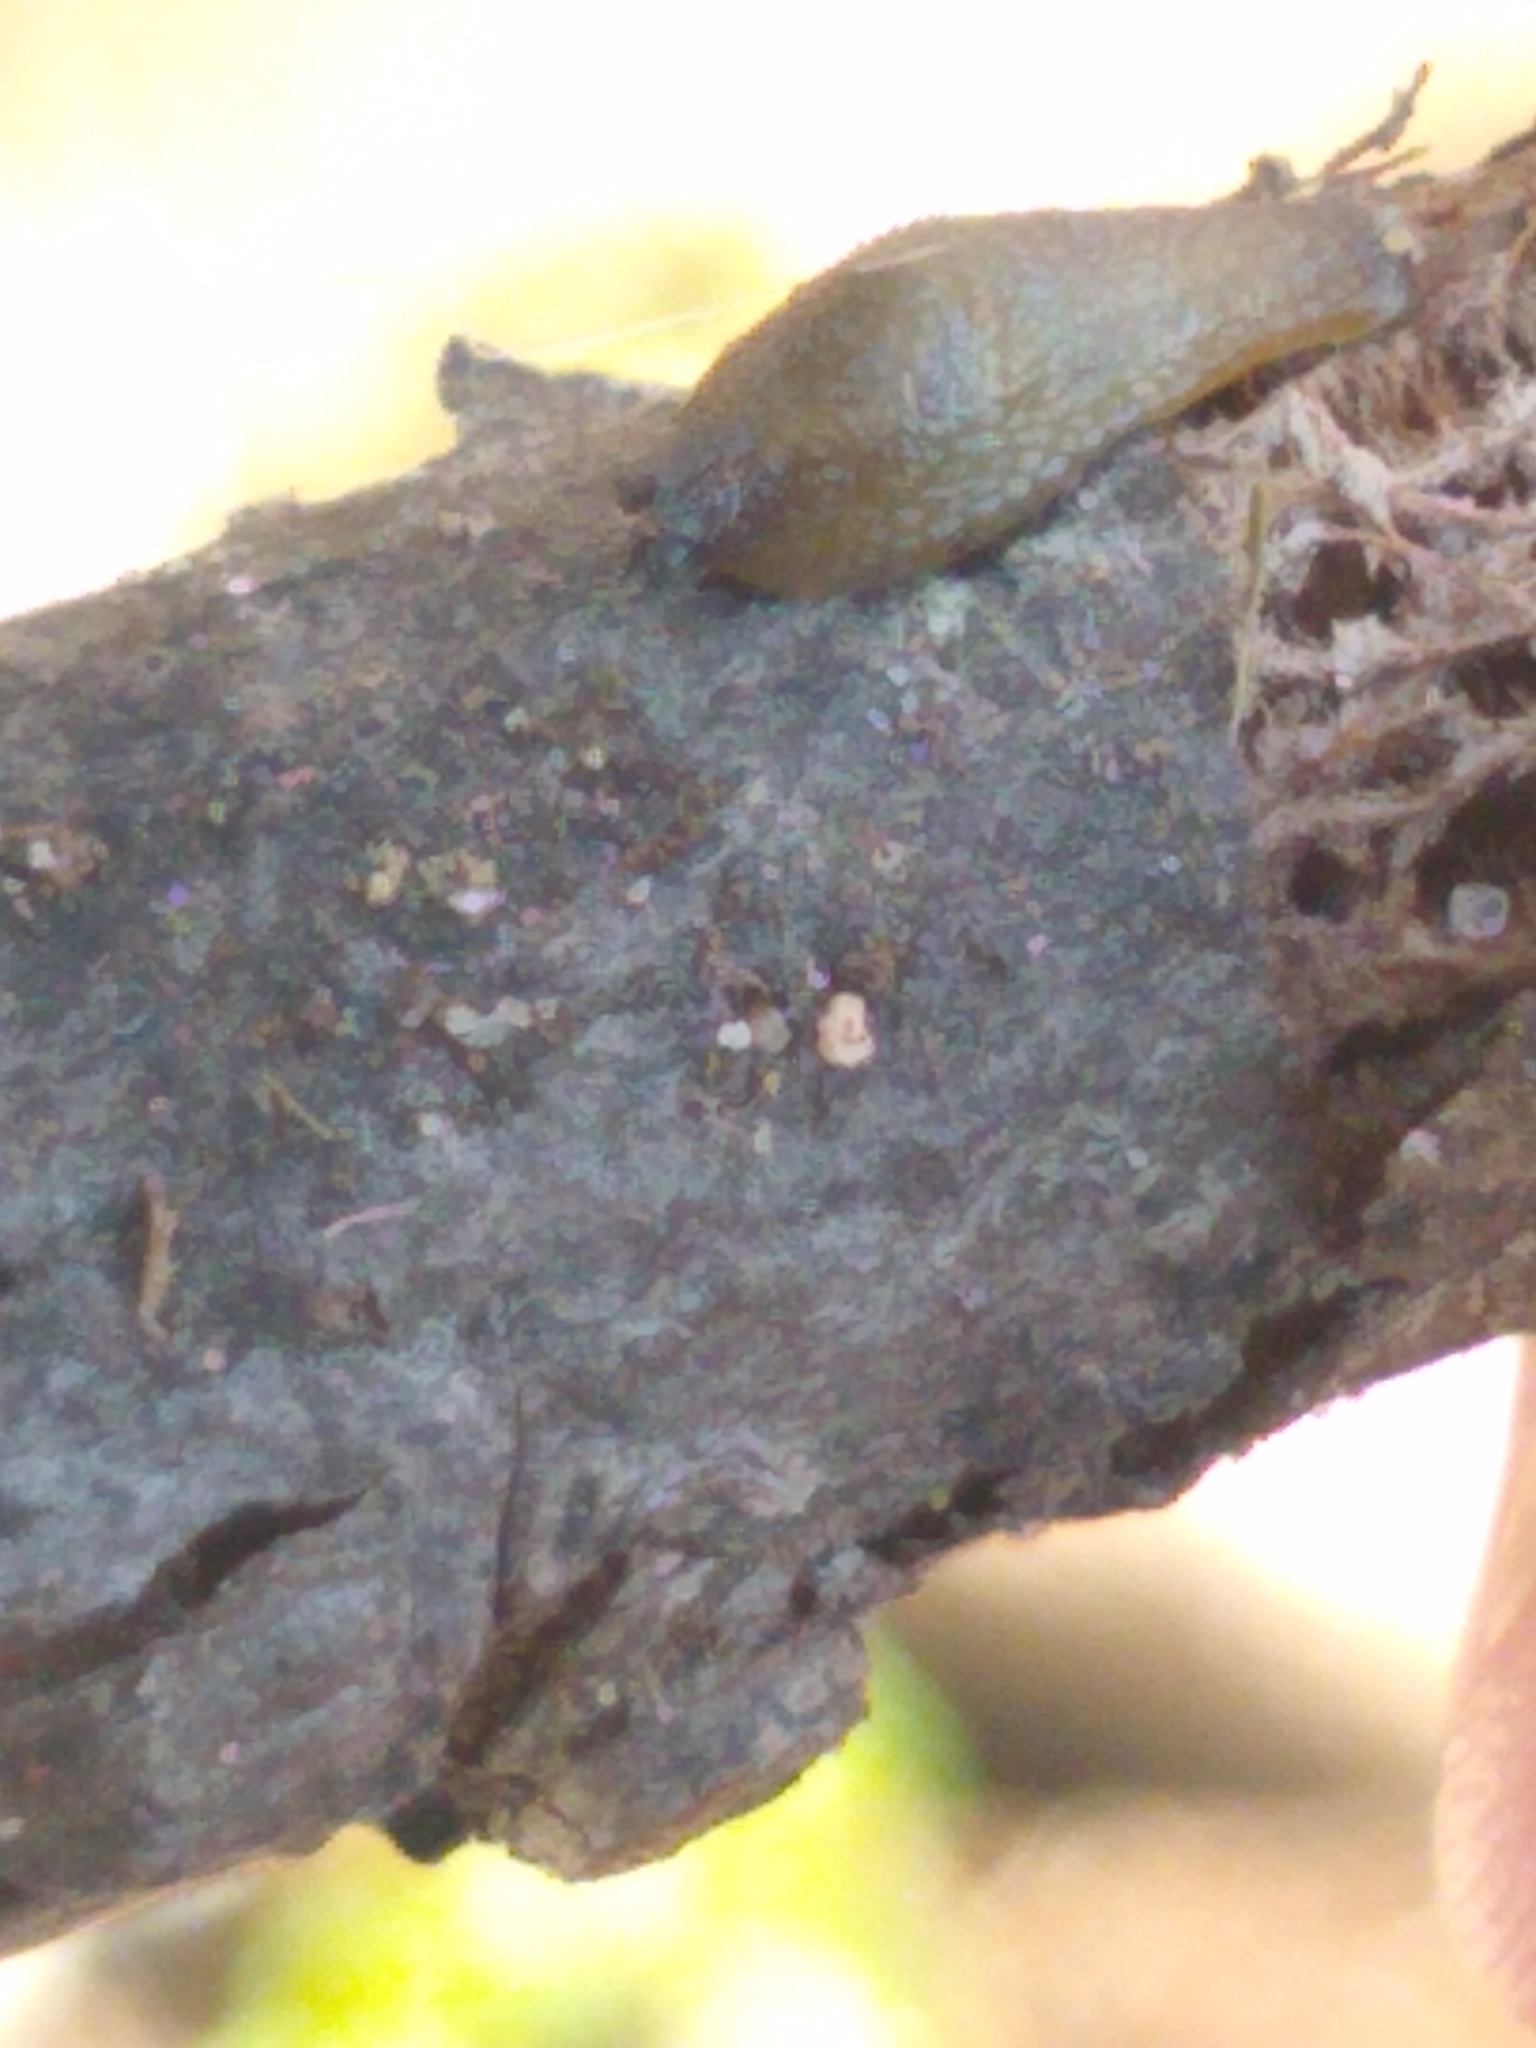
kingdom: Animalia
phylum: Mollusca
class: Gastropoda
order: Stylommatophora
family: Arionidae
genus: Arion
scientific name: Arion intermedius
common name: Hedgehog slug
